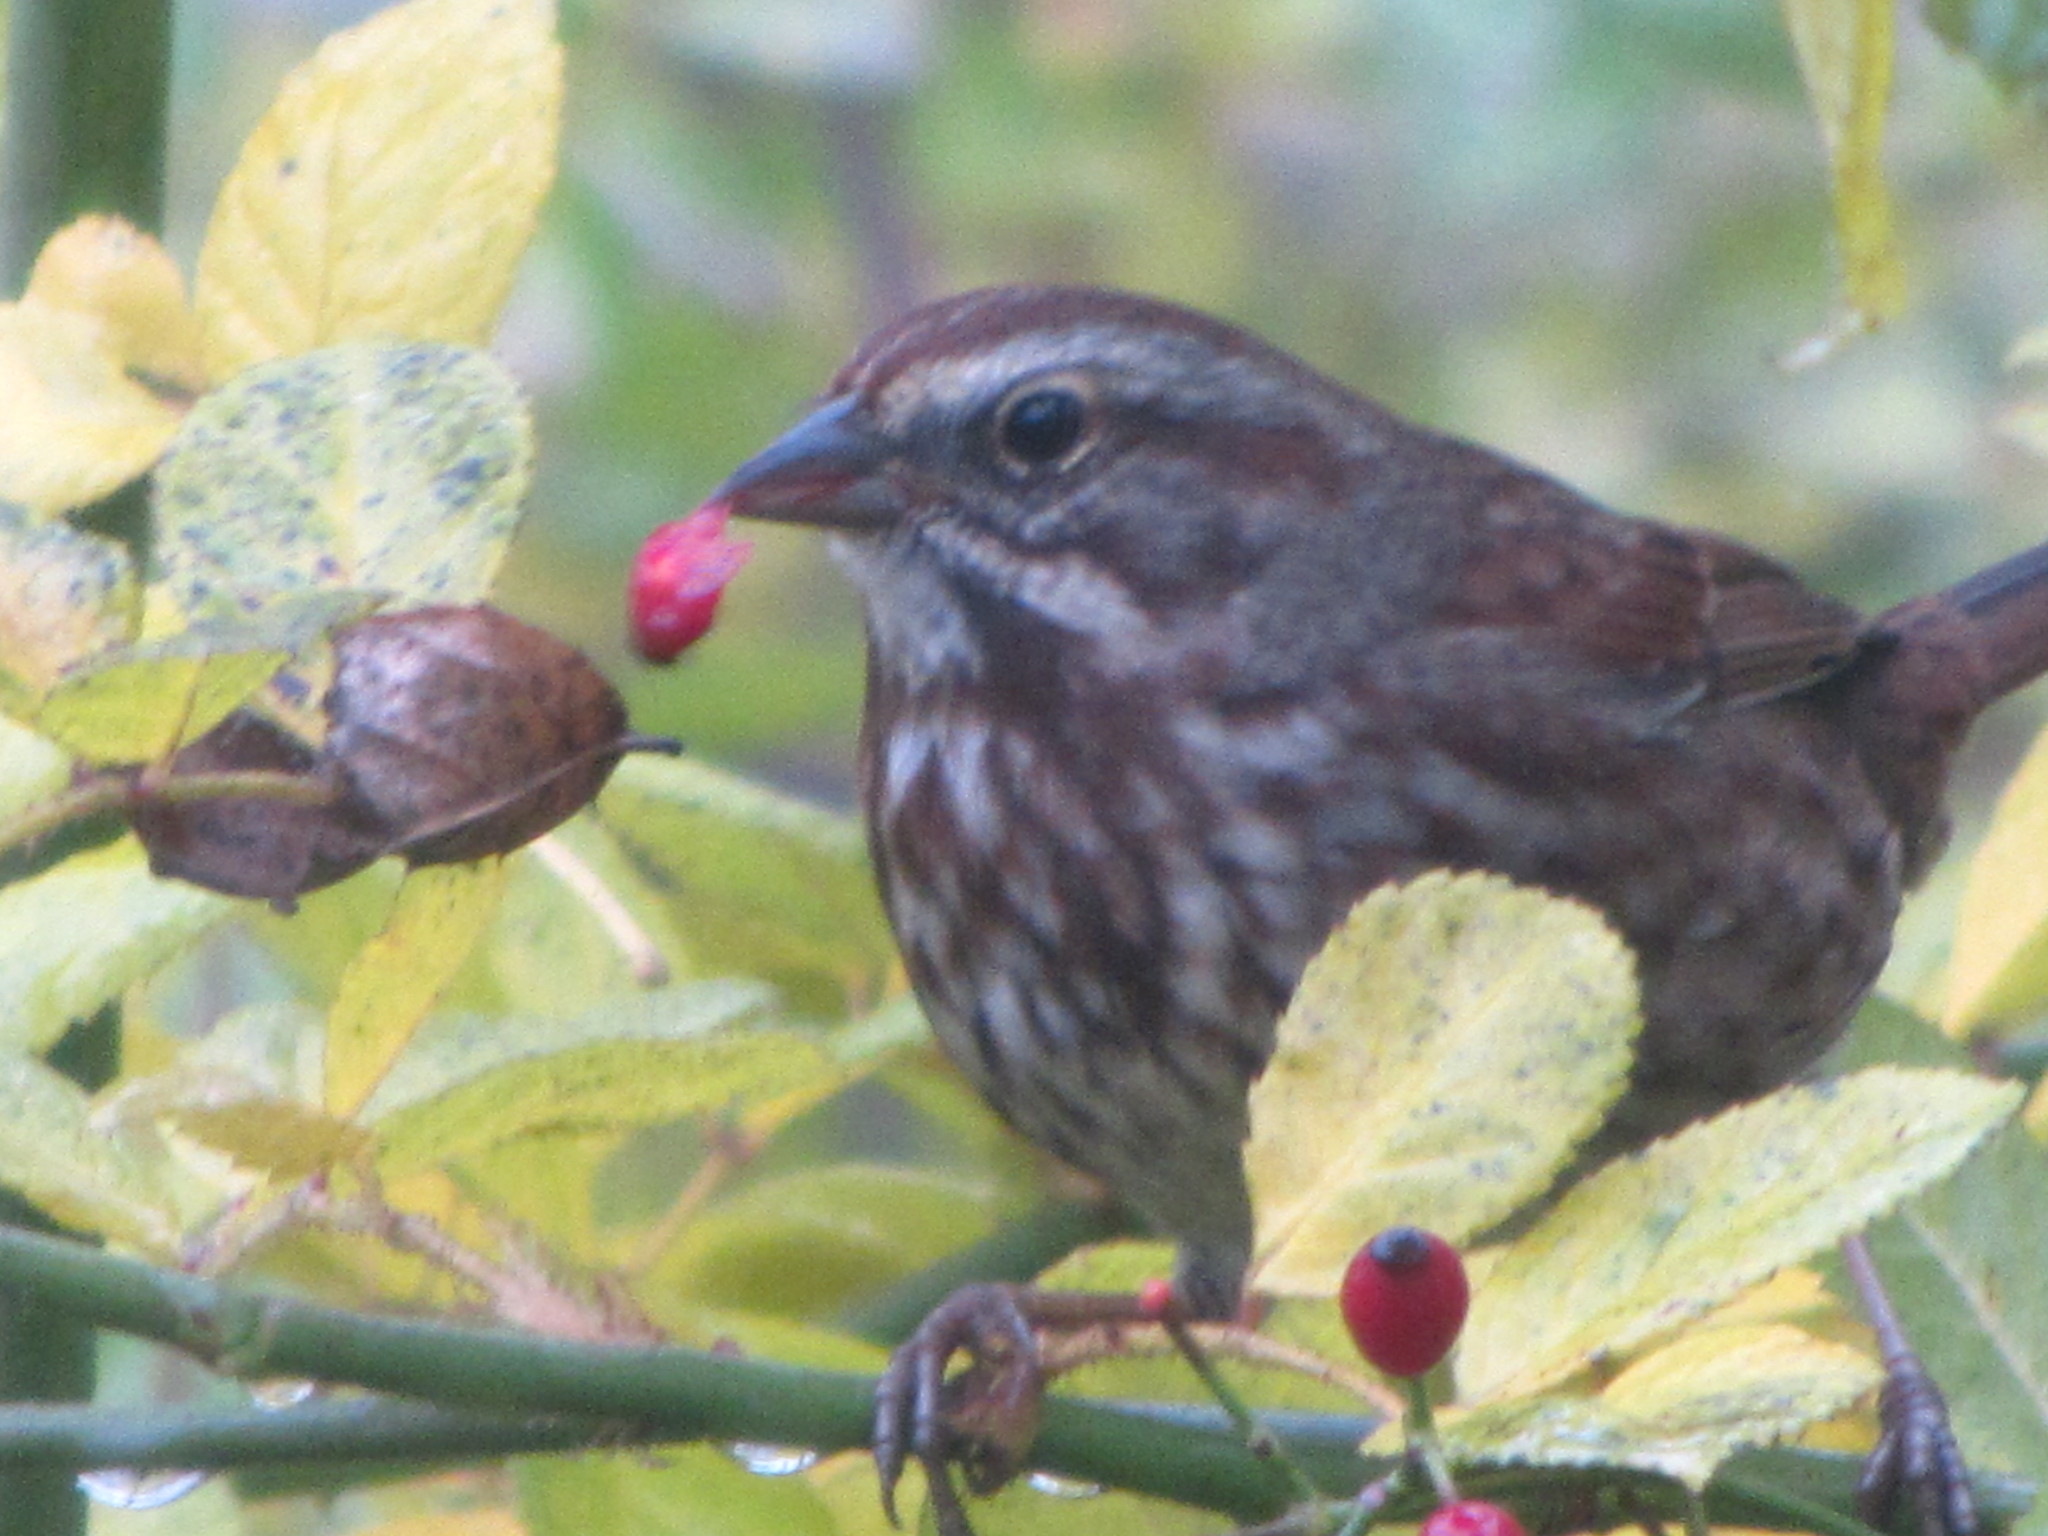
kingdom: Animalia
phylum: Chordata
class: Aves
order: Passeriformes
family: Passerellidae
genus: Melospiza
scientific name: Melospiza melodia
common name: Song sparrow
